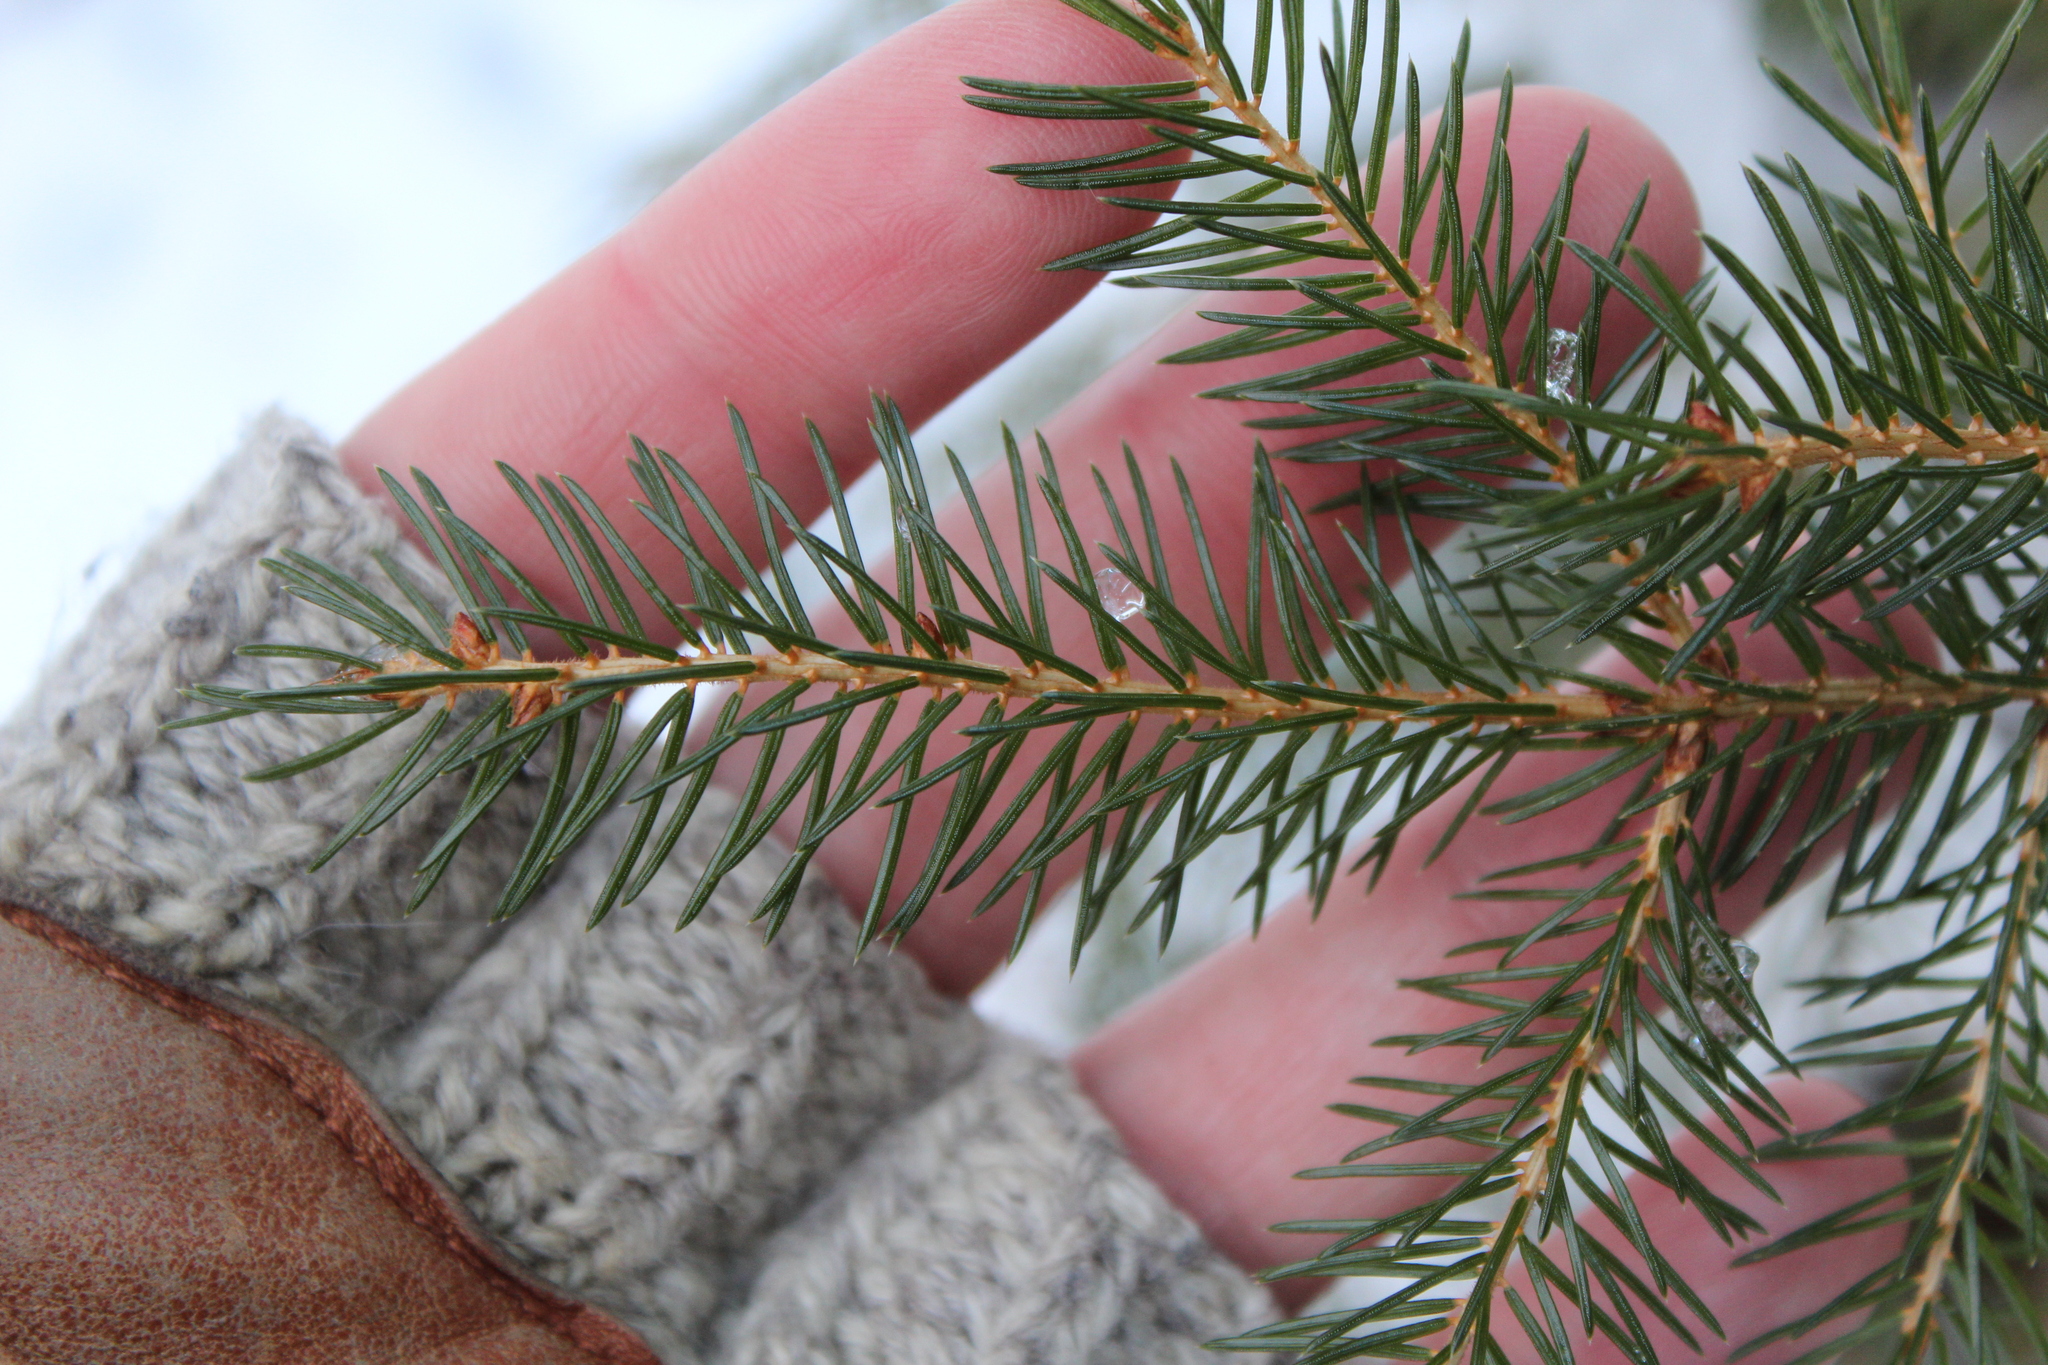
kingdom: Plantae
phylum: Tracheophyta
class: Pinopsida
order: Pinales
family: Pinaceae
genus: Picea
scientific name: Picea rubens
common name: Red spruce
